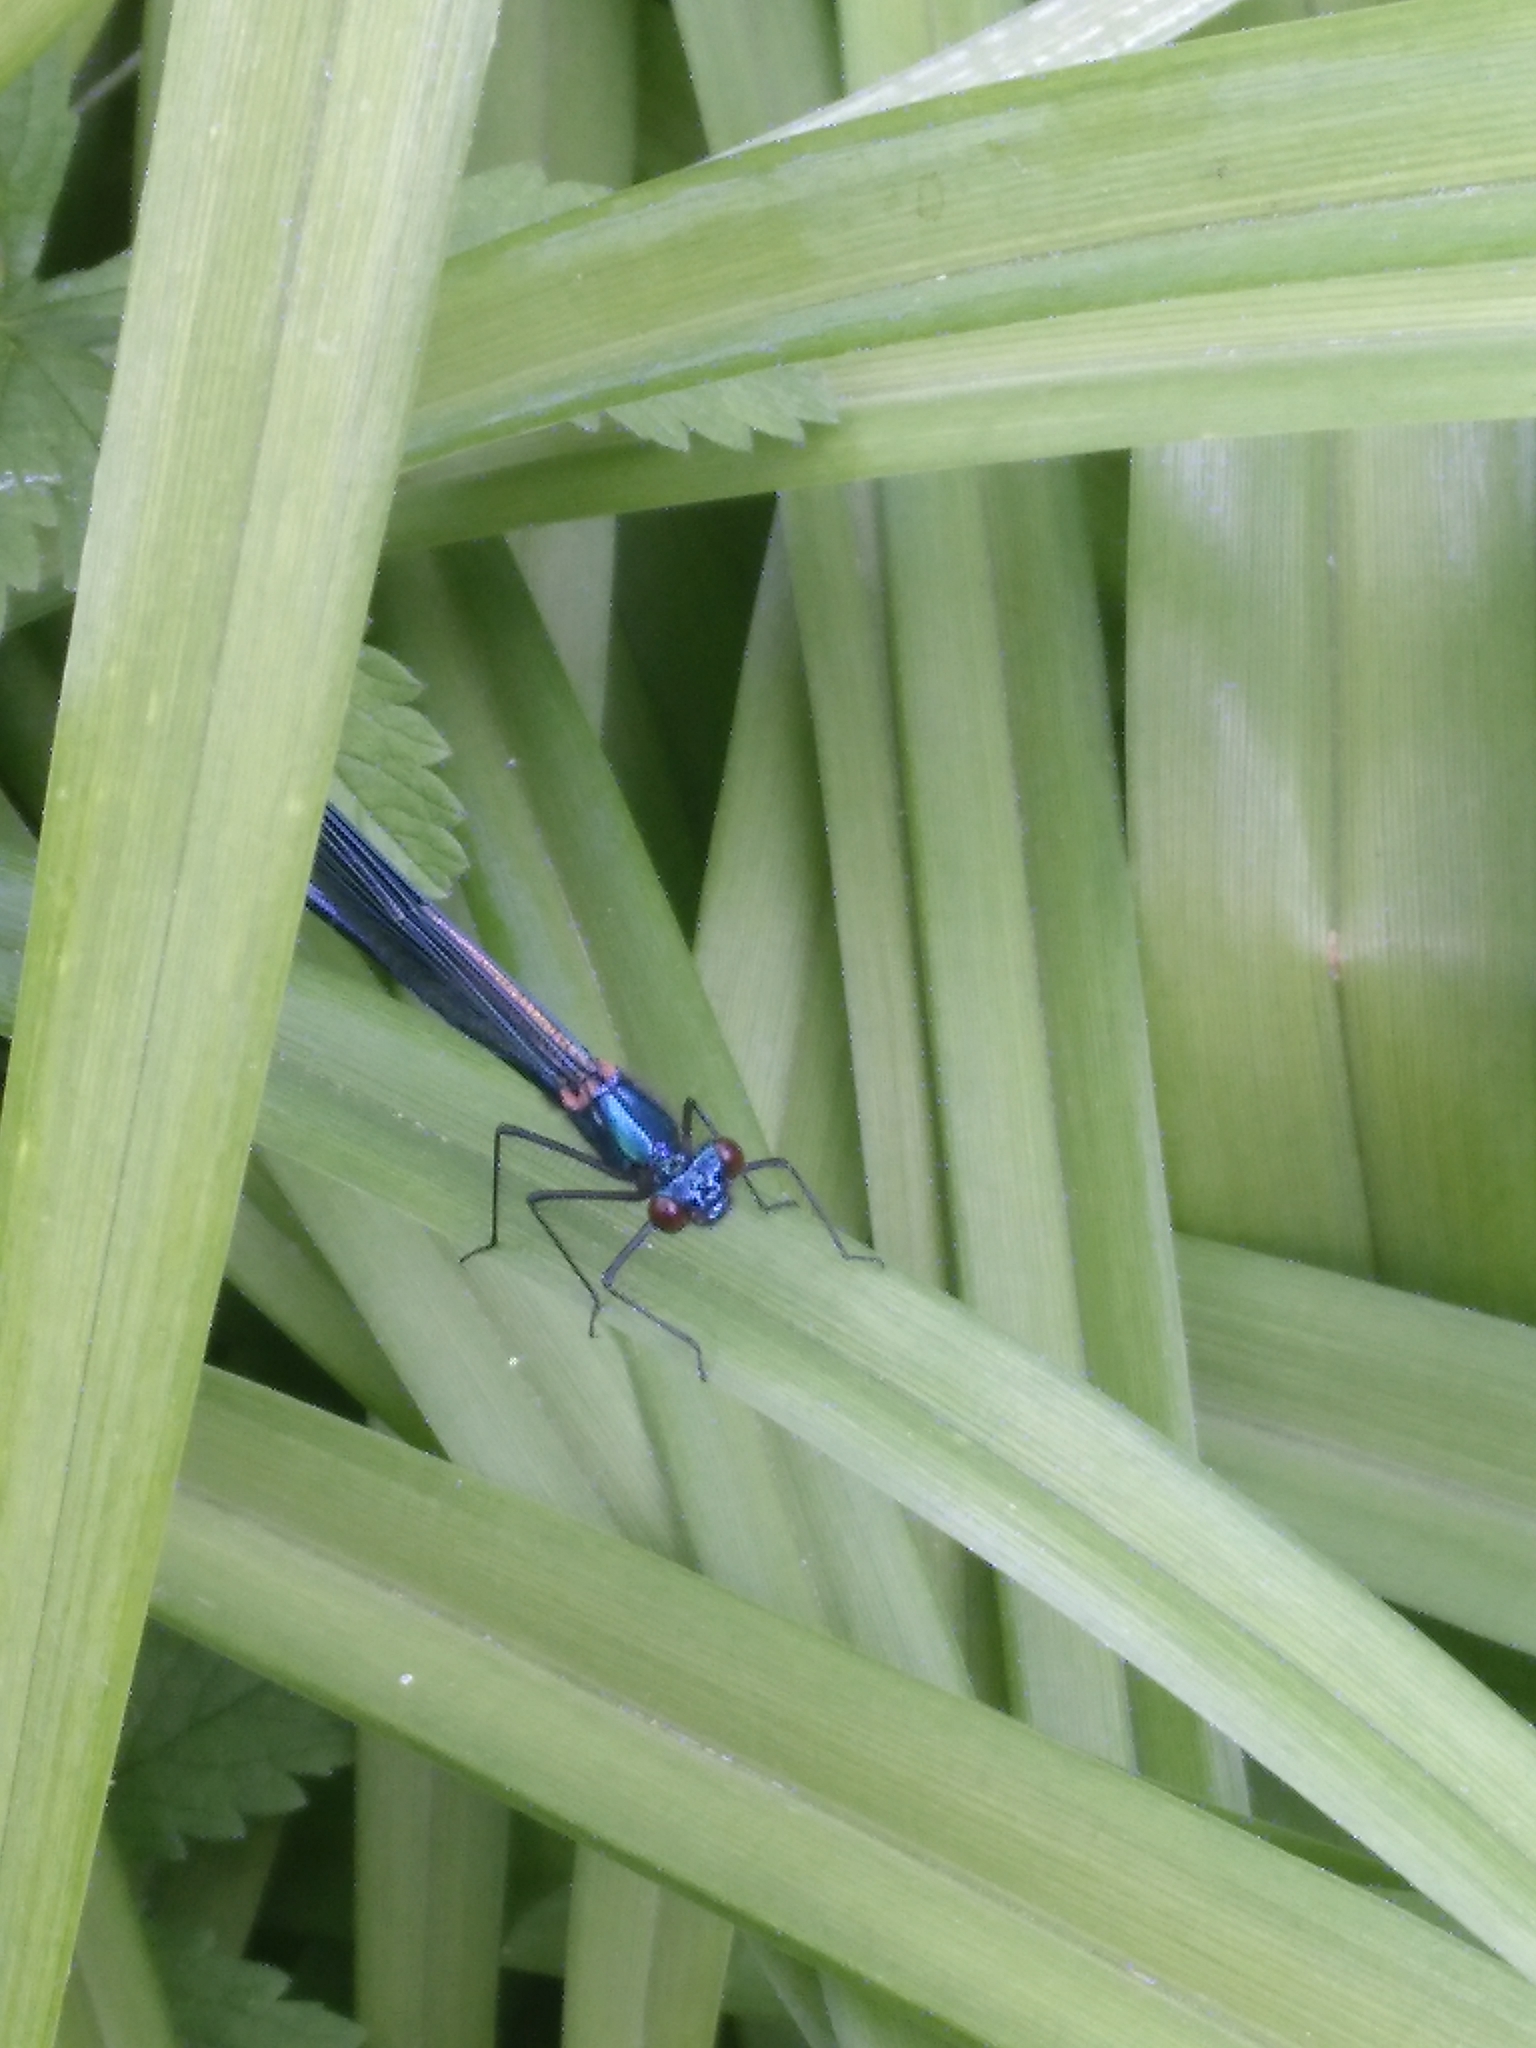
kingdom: Animalia
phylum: Arthropoda
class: Insecta
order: Odonata
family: Calopterygidae
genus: Calopteryx
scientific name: Calopteryx splendens
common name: Banded demoiselle
